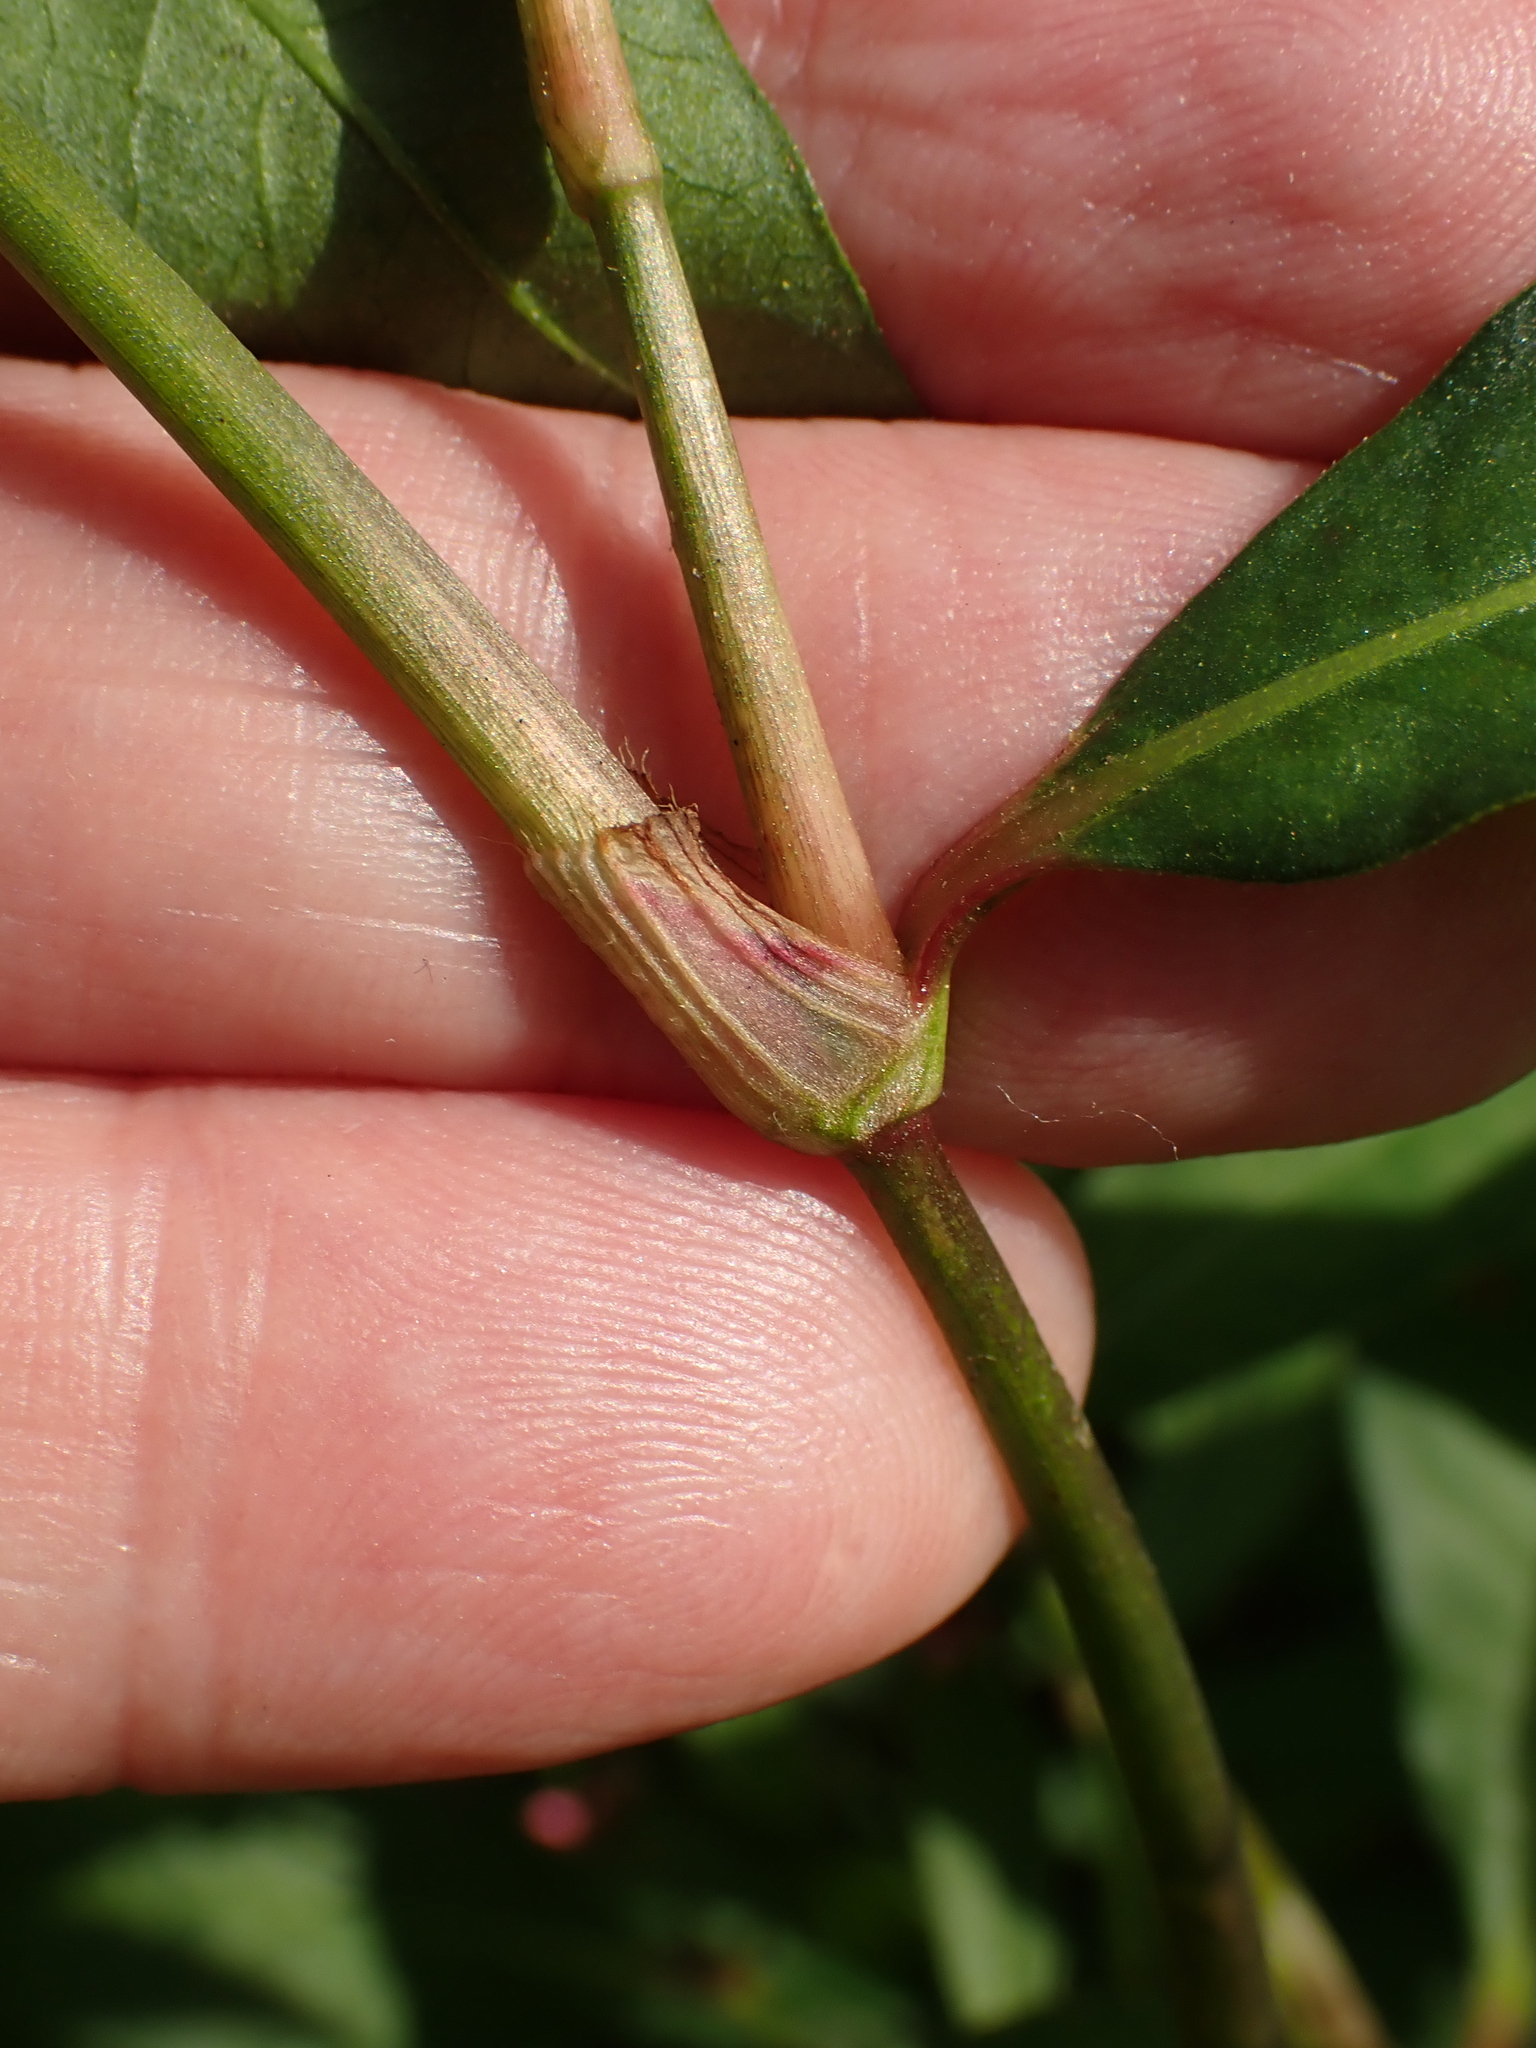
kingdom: Plantae
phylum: Tracheophyta
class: Magnoliopsida
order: Caryophyllales
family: Polygonaceae
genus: Persicaria
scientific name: Persicaria maculosa
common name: Redshank
